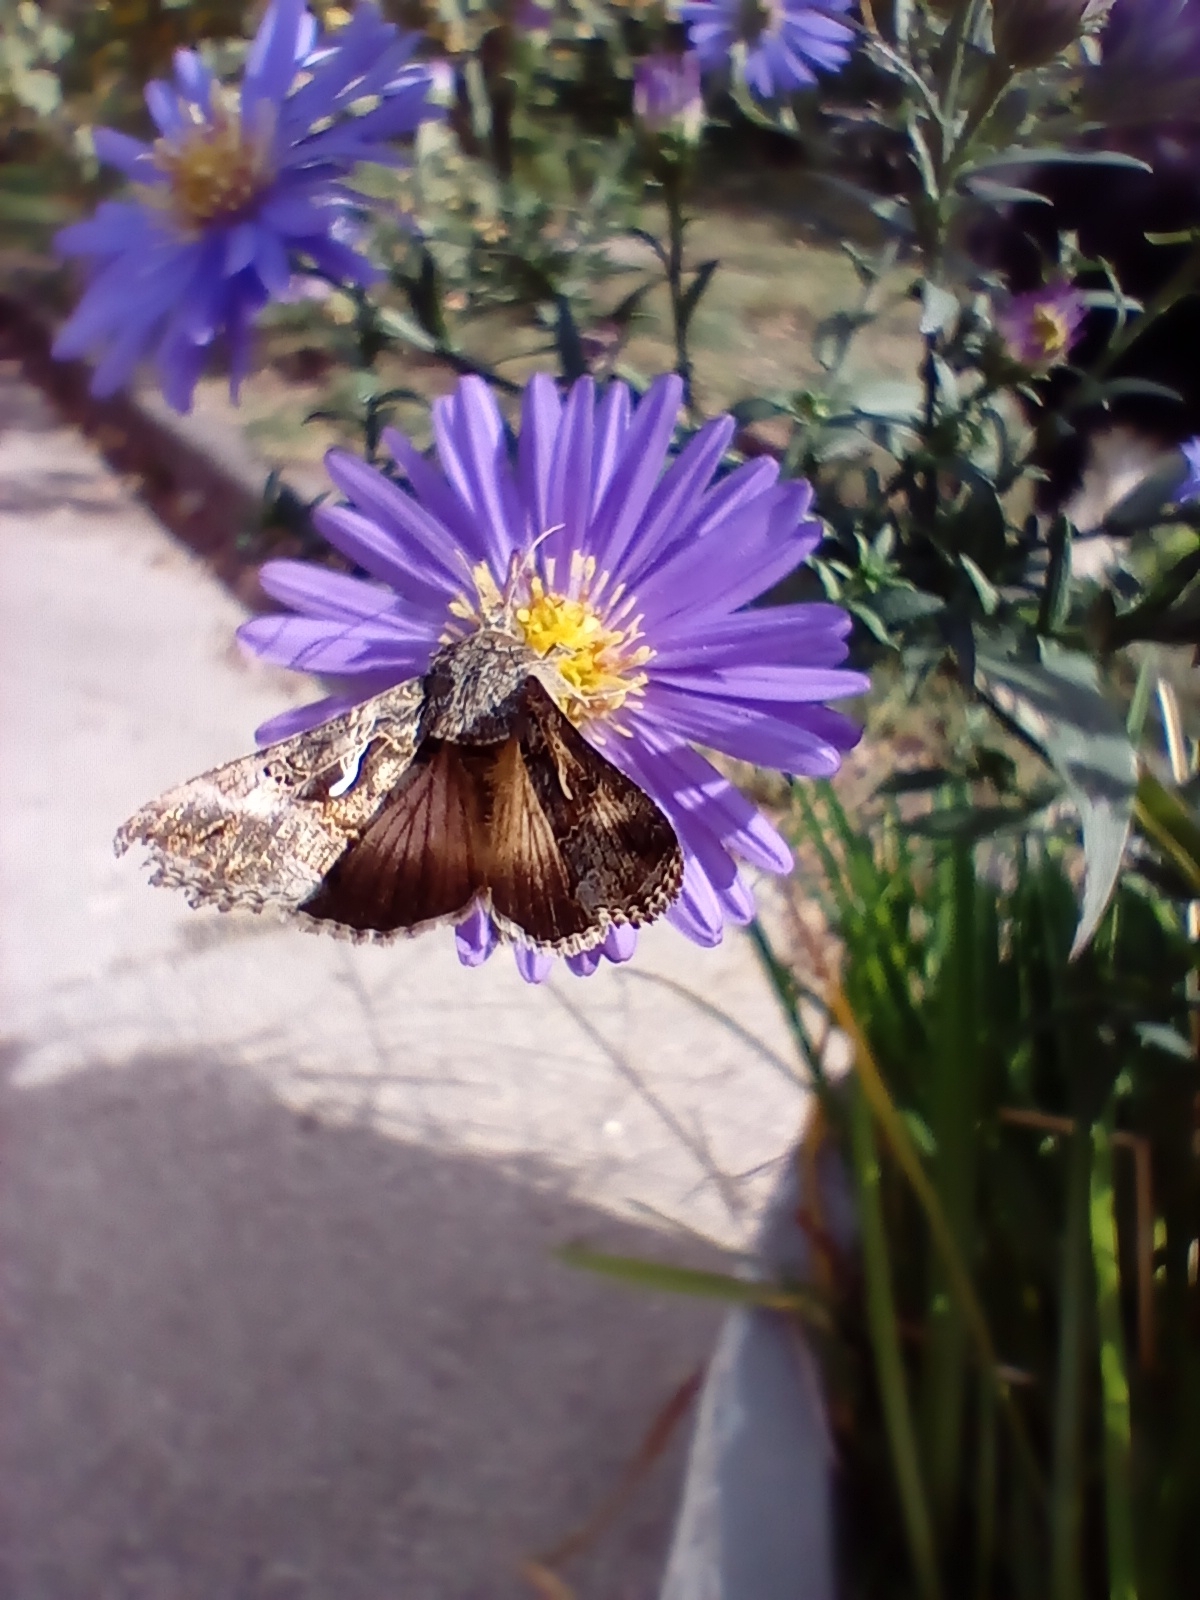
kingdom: Animalia
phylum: Arthropoda
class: Insecta
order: Lepidoptera
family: Noctuidae
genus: Autographa
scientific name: Autographa gamma
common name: Silver y
